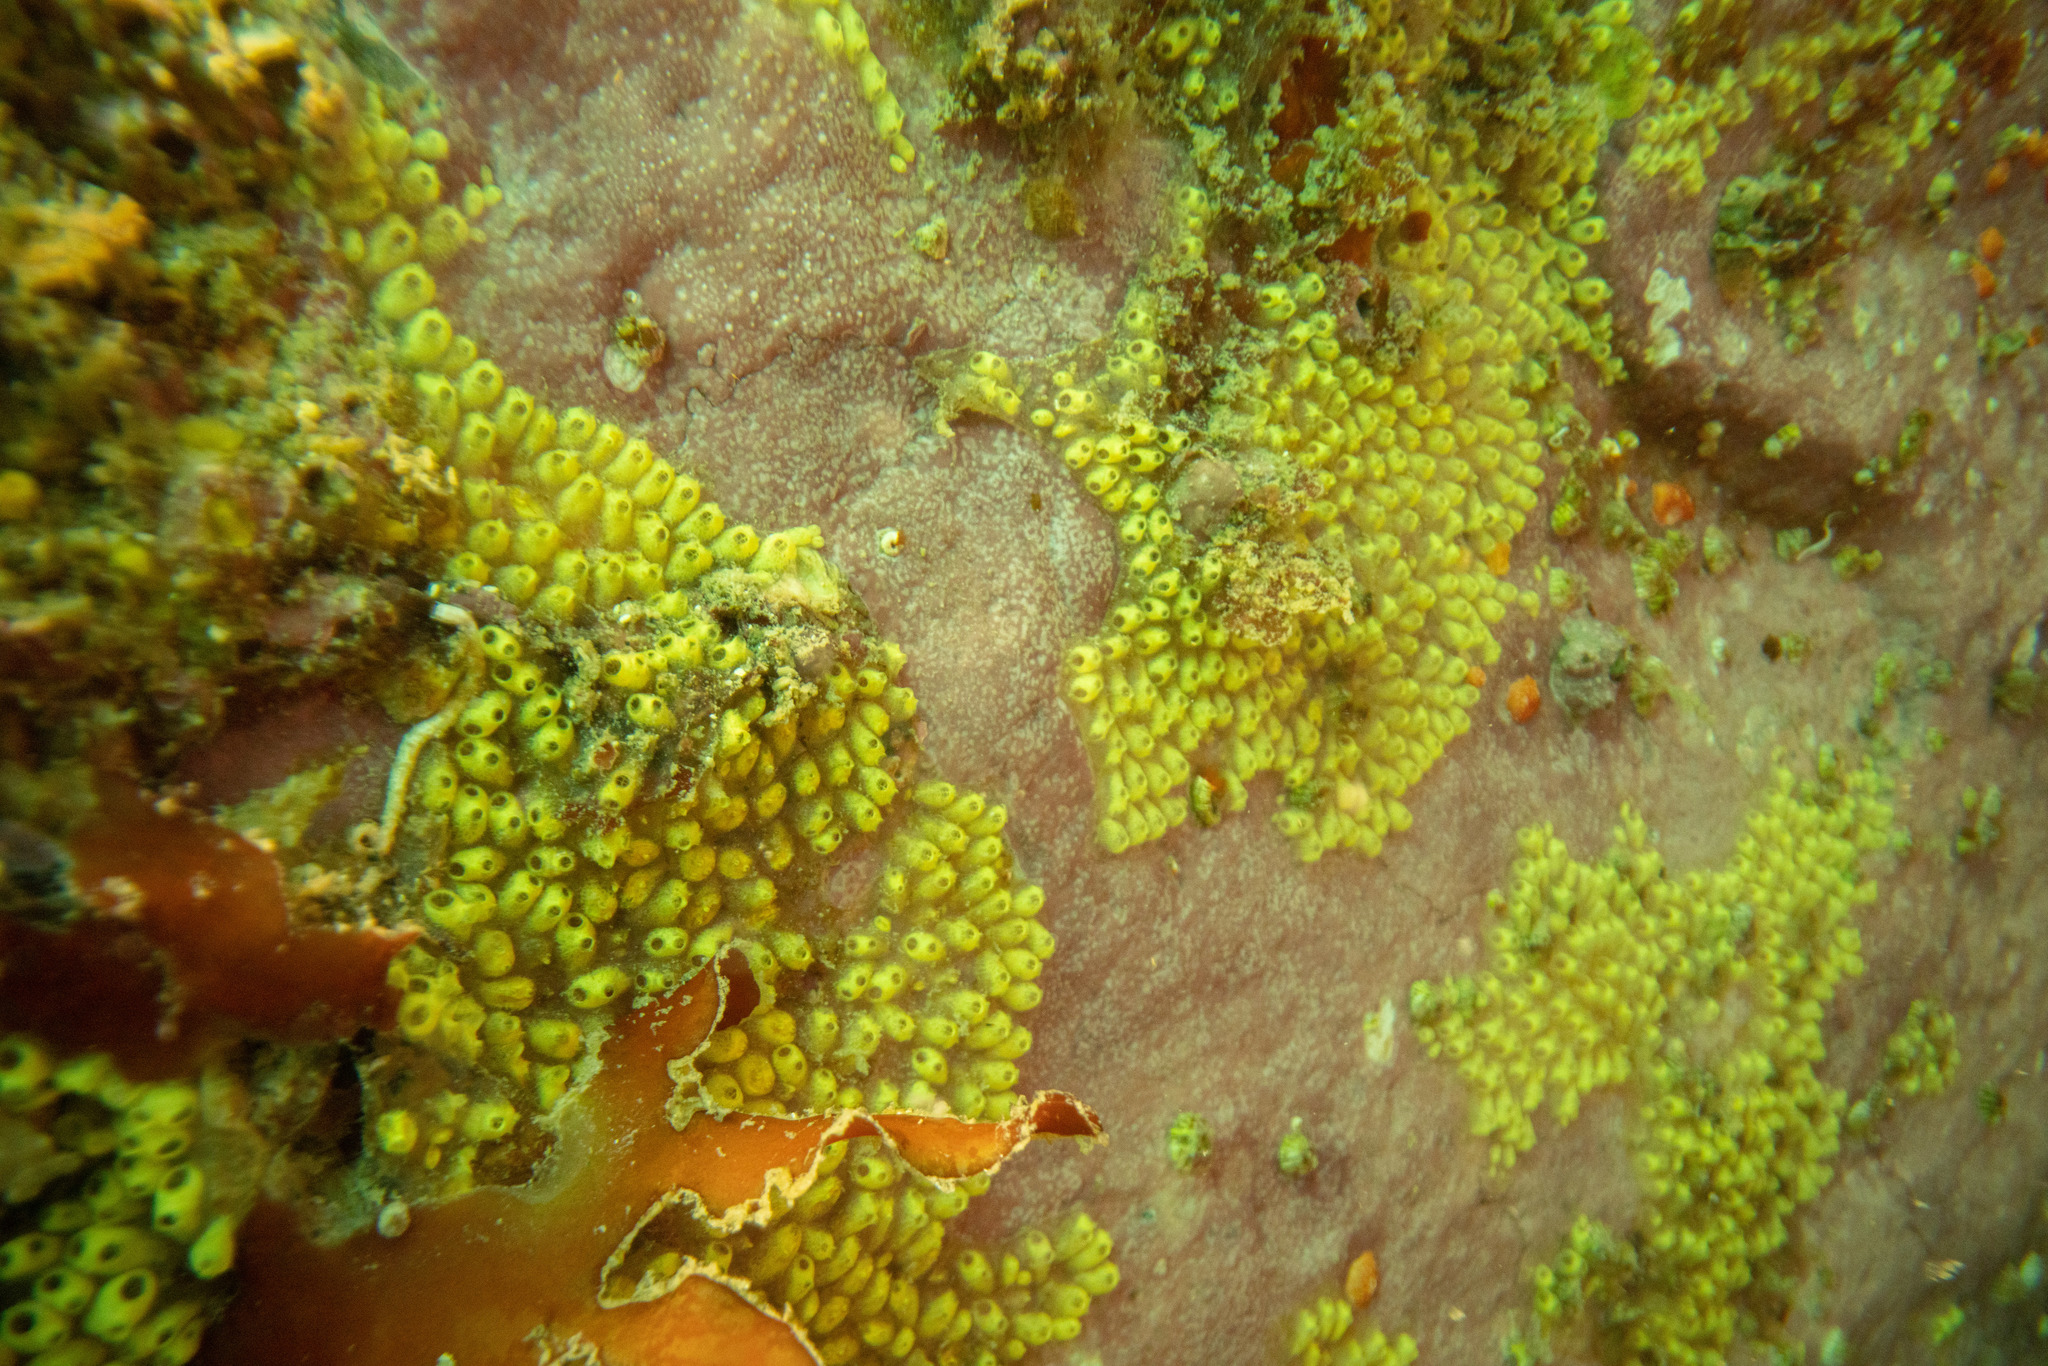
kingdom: Animalia
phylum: Chordata
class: Ascidiacea
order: Stolidobranchia
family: Styelidae
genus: Symplegma
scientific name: Symplegma brakenhielmi
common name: Ascidian
